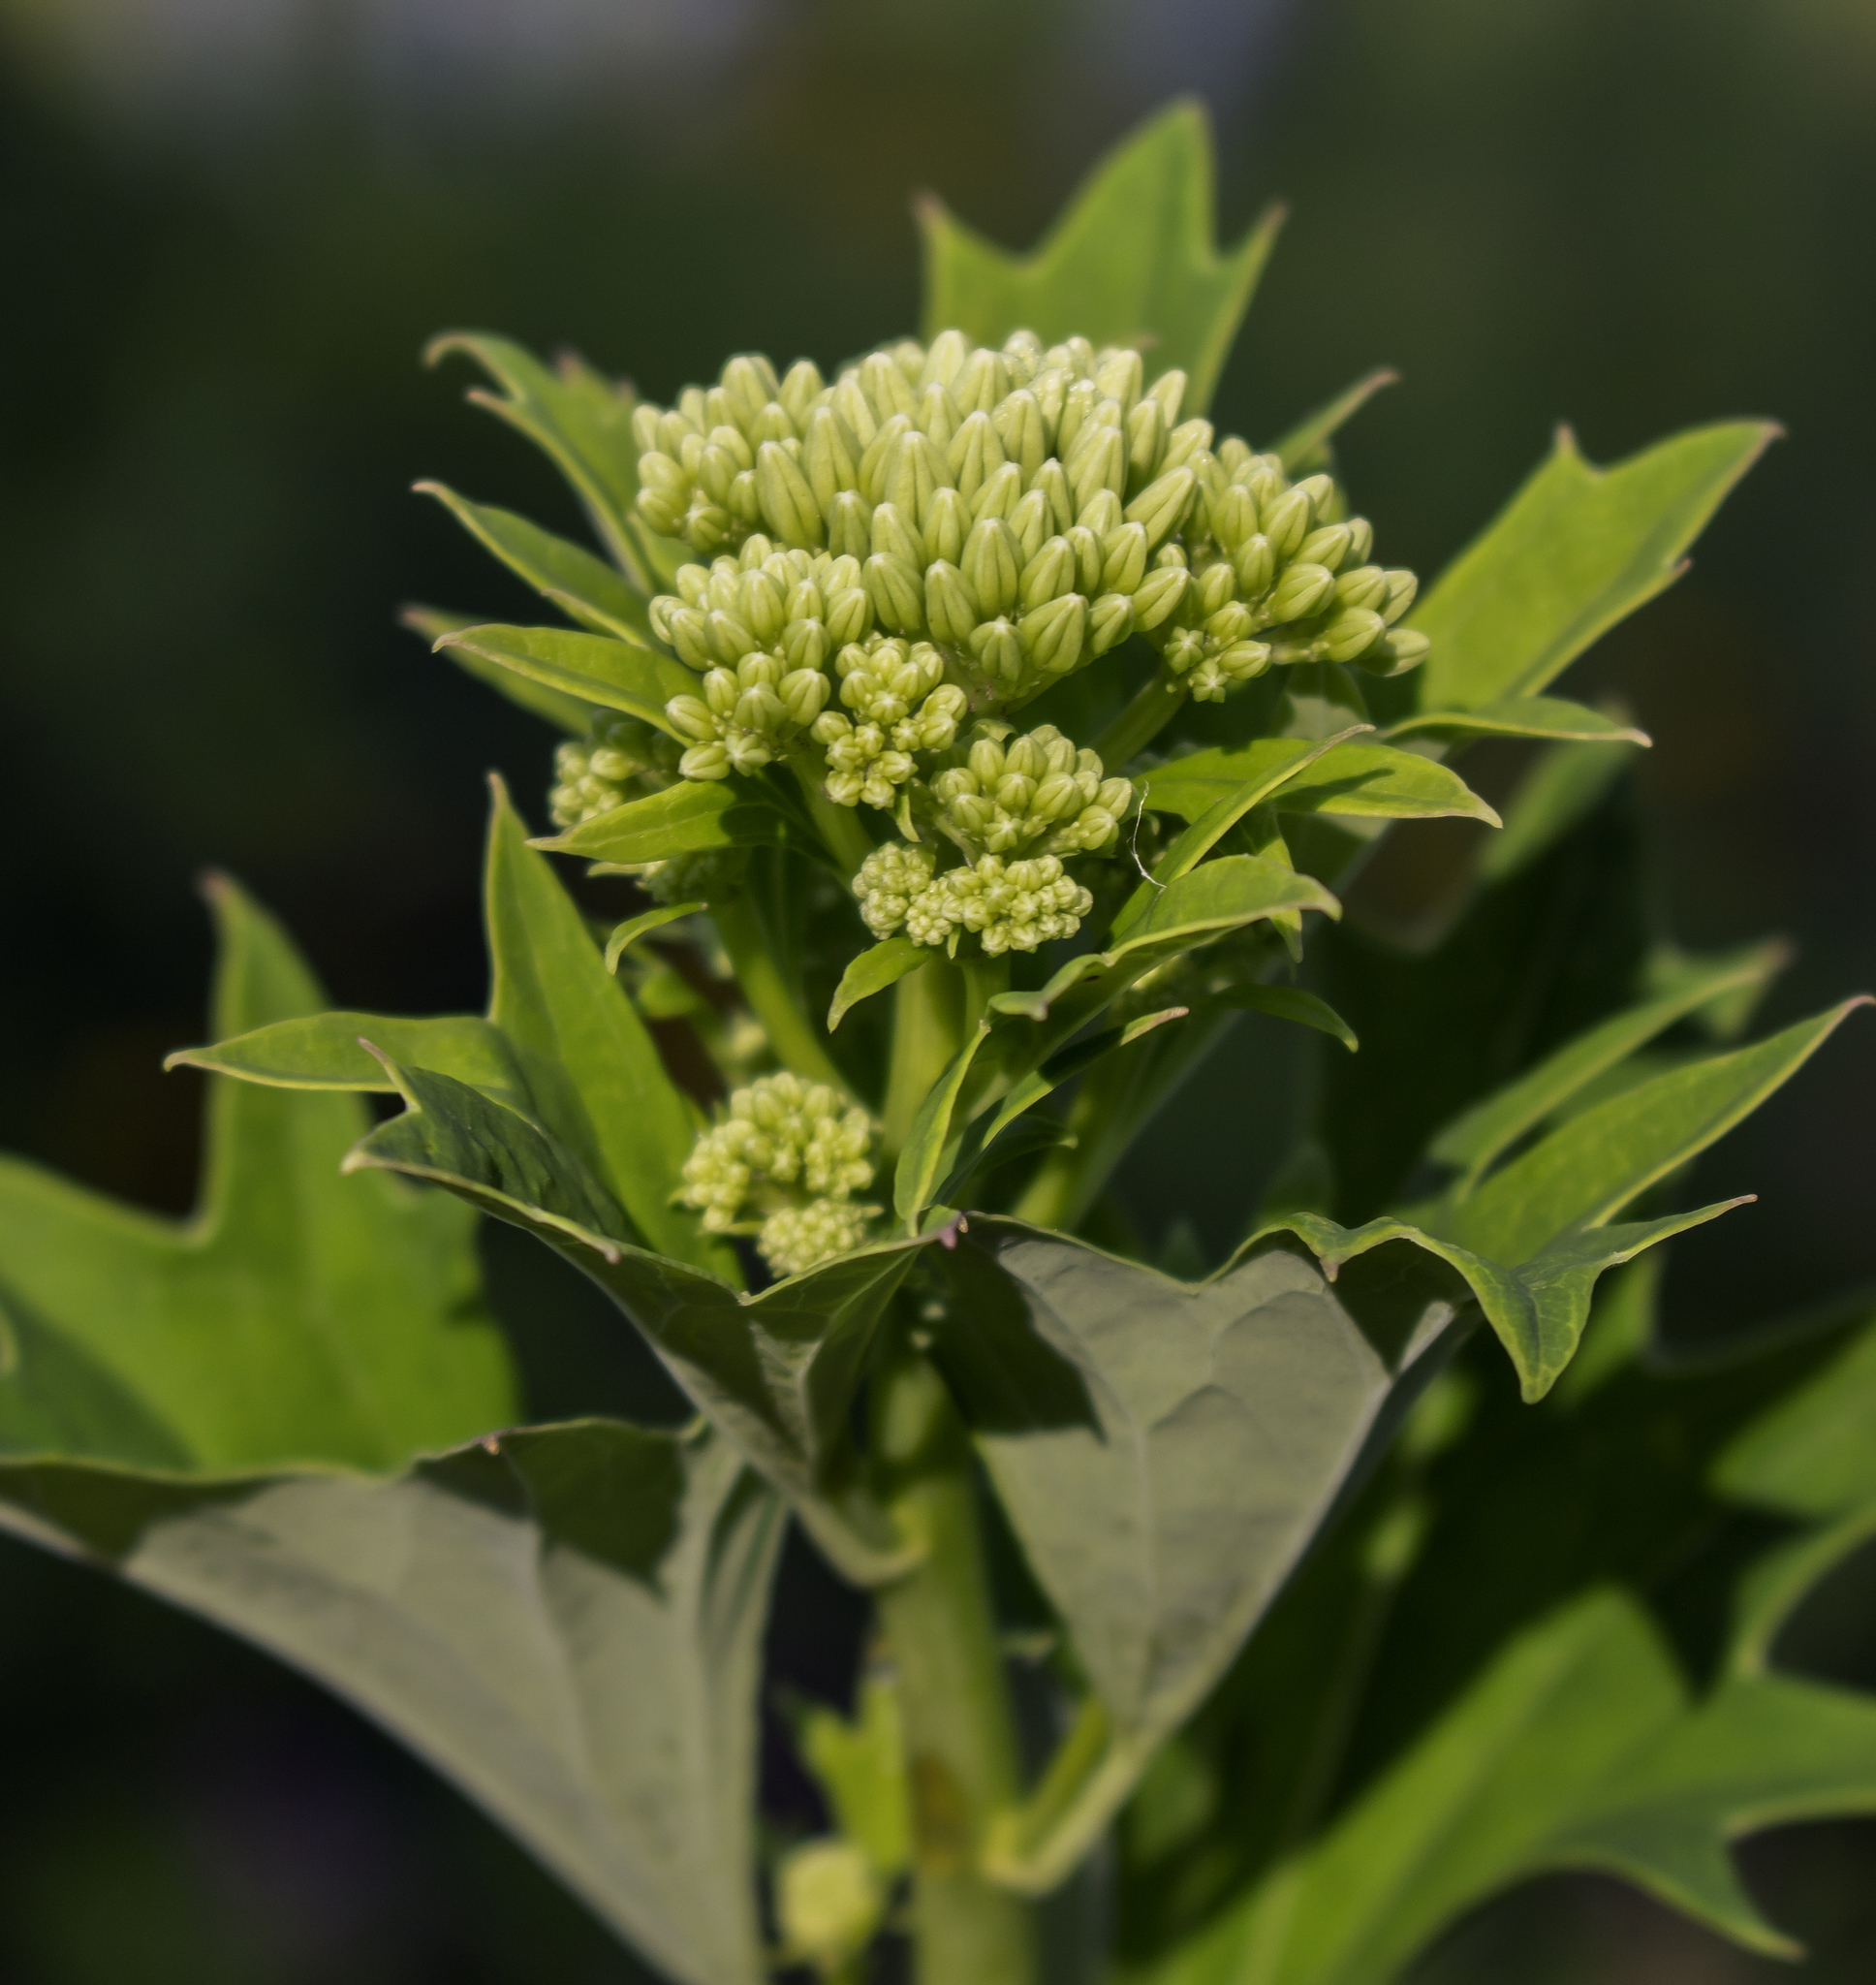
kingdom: Plantae
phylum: Tracheophyta
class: Magnoliopsida
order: Asterales
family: Asteraceae
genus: Arnoglossum
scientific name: Arnoglossum atriplicifolium
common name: Pale indian-plantain
